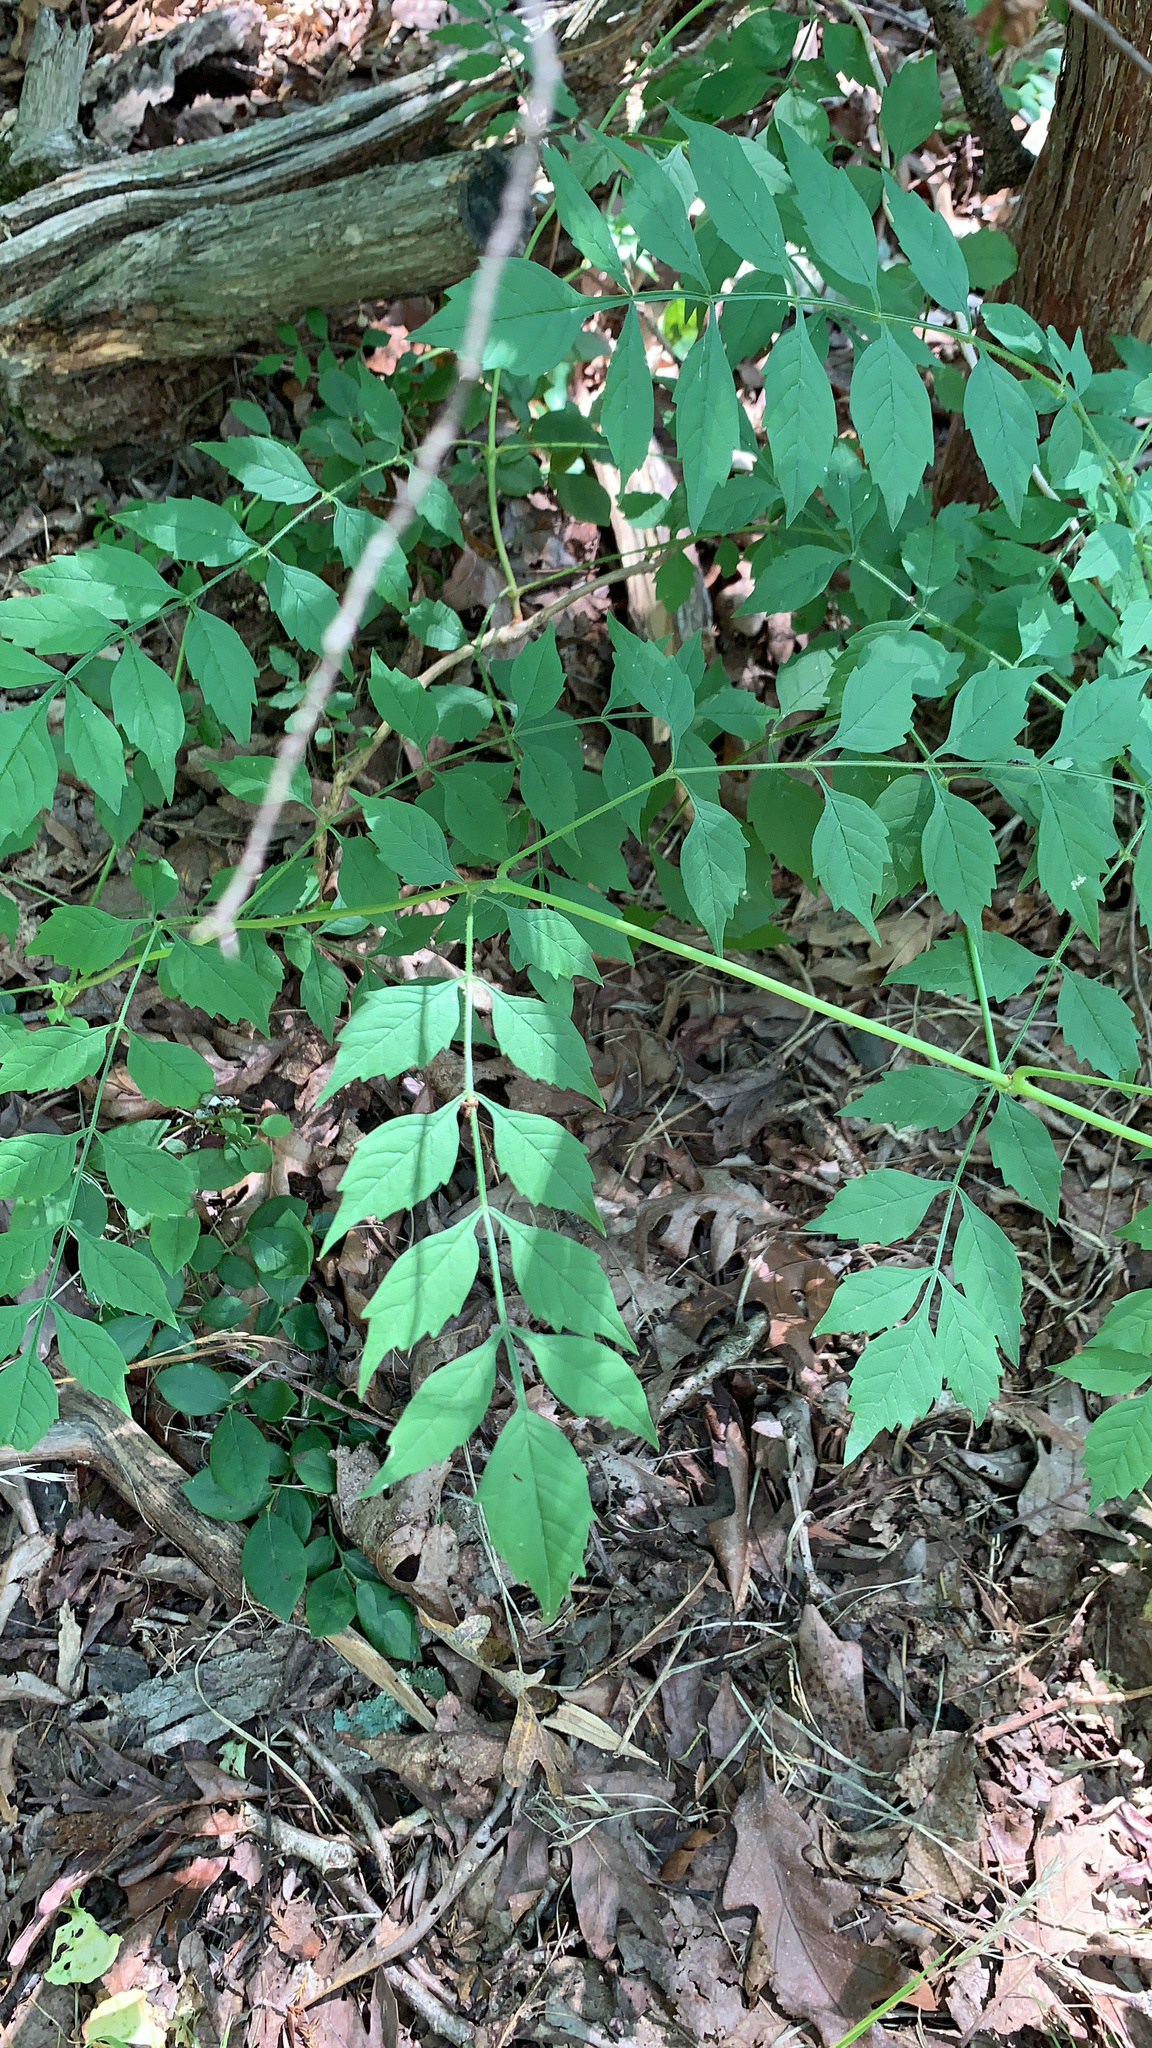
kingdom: Plantae
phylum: Tracheophyta
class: Magnoliopsida
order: Lamiales
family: Bignoniaceae
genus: Campsis
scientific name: Campsis radicans
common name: Trumpet-creeper
